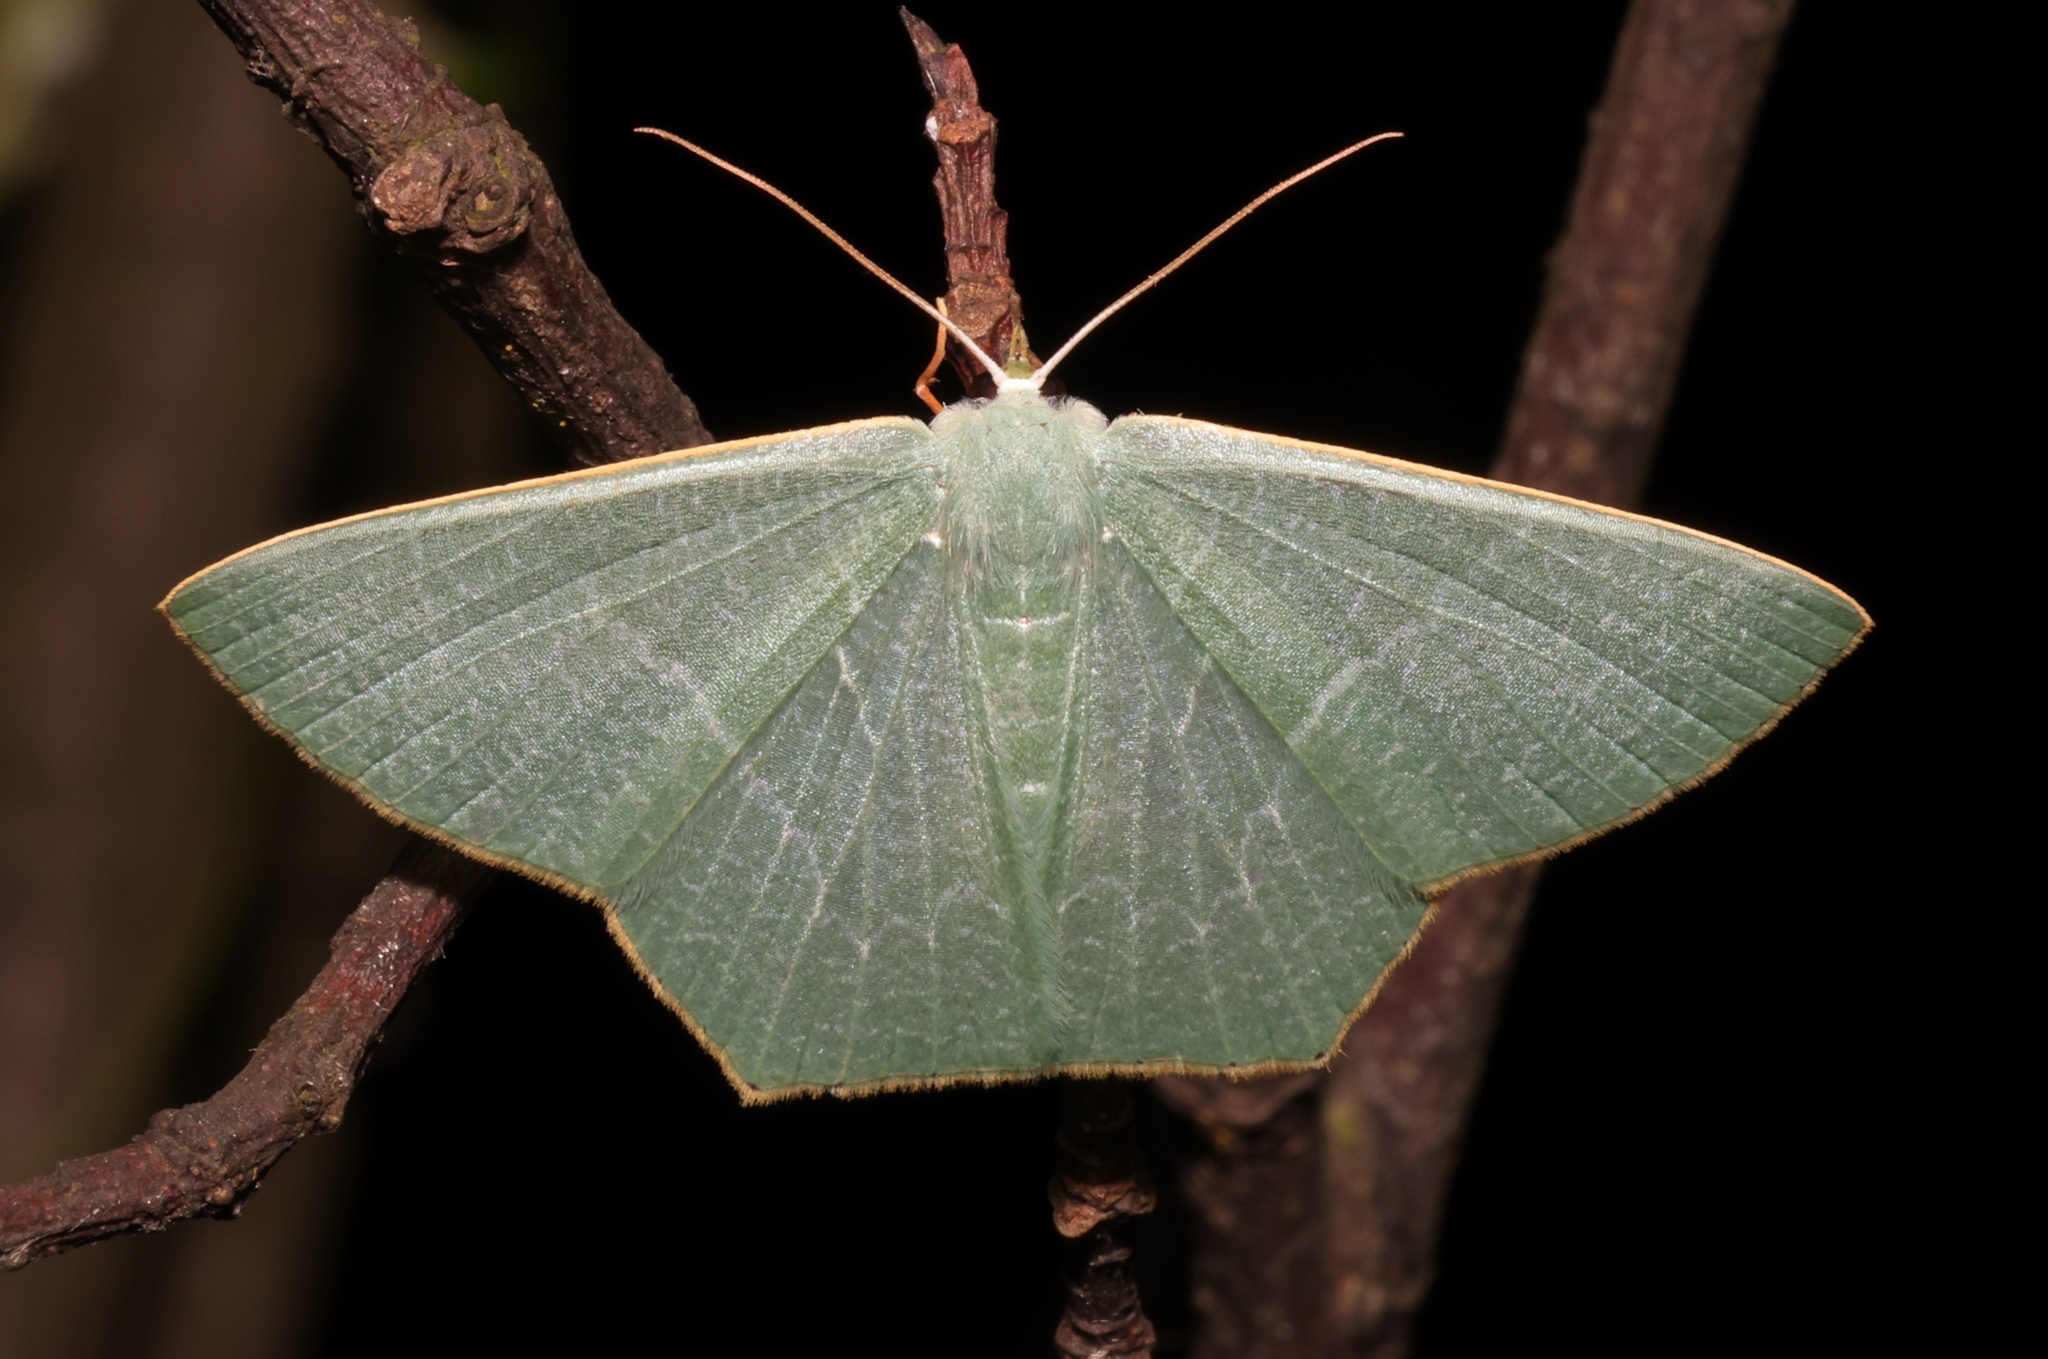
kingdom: Animalia
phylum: Arthropoda
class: Insecta
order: Lepidoptera
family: Geometridae
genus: Thalassodes
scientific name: Thalassodes immissaria
